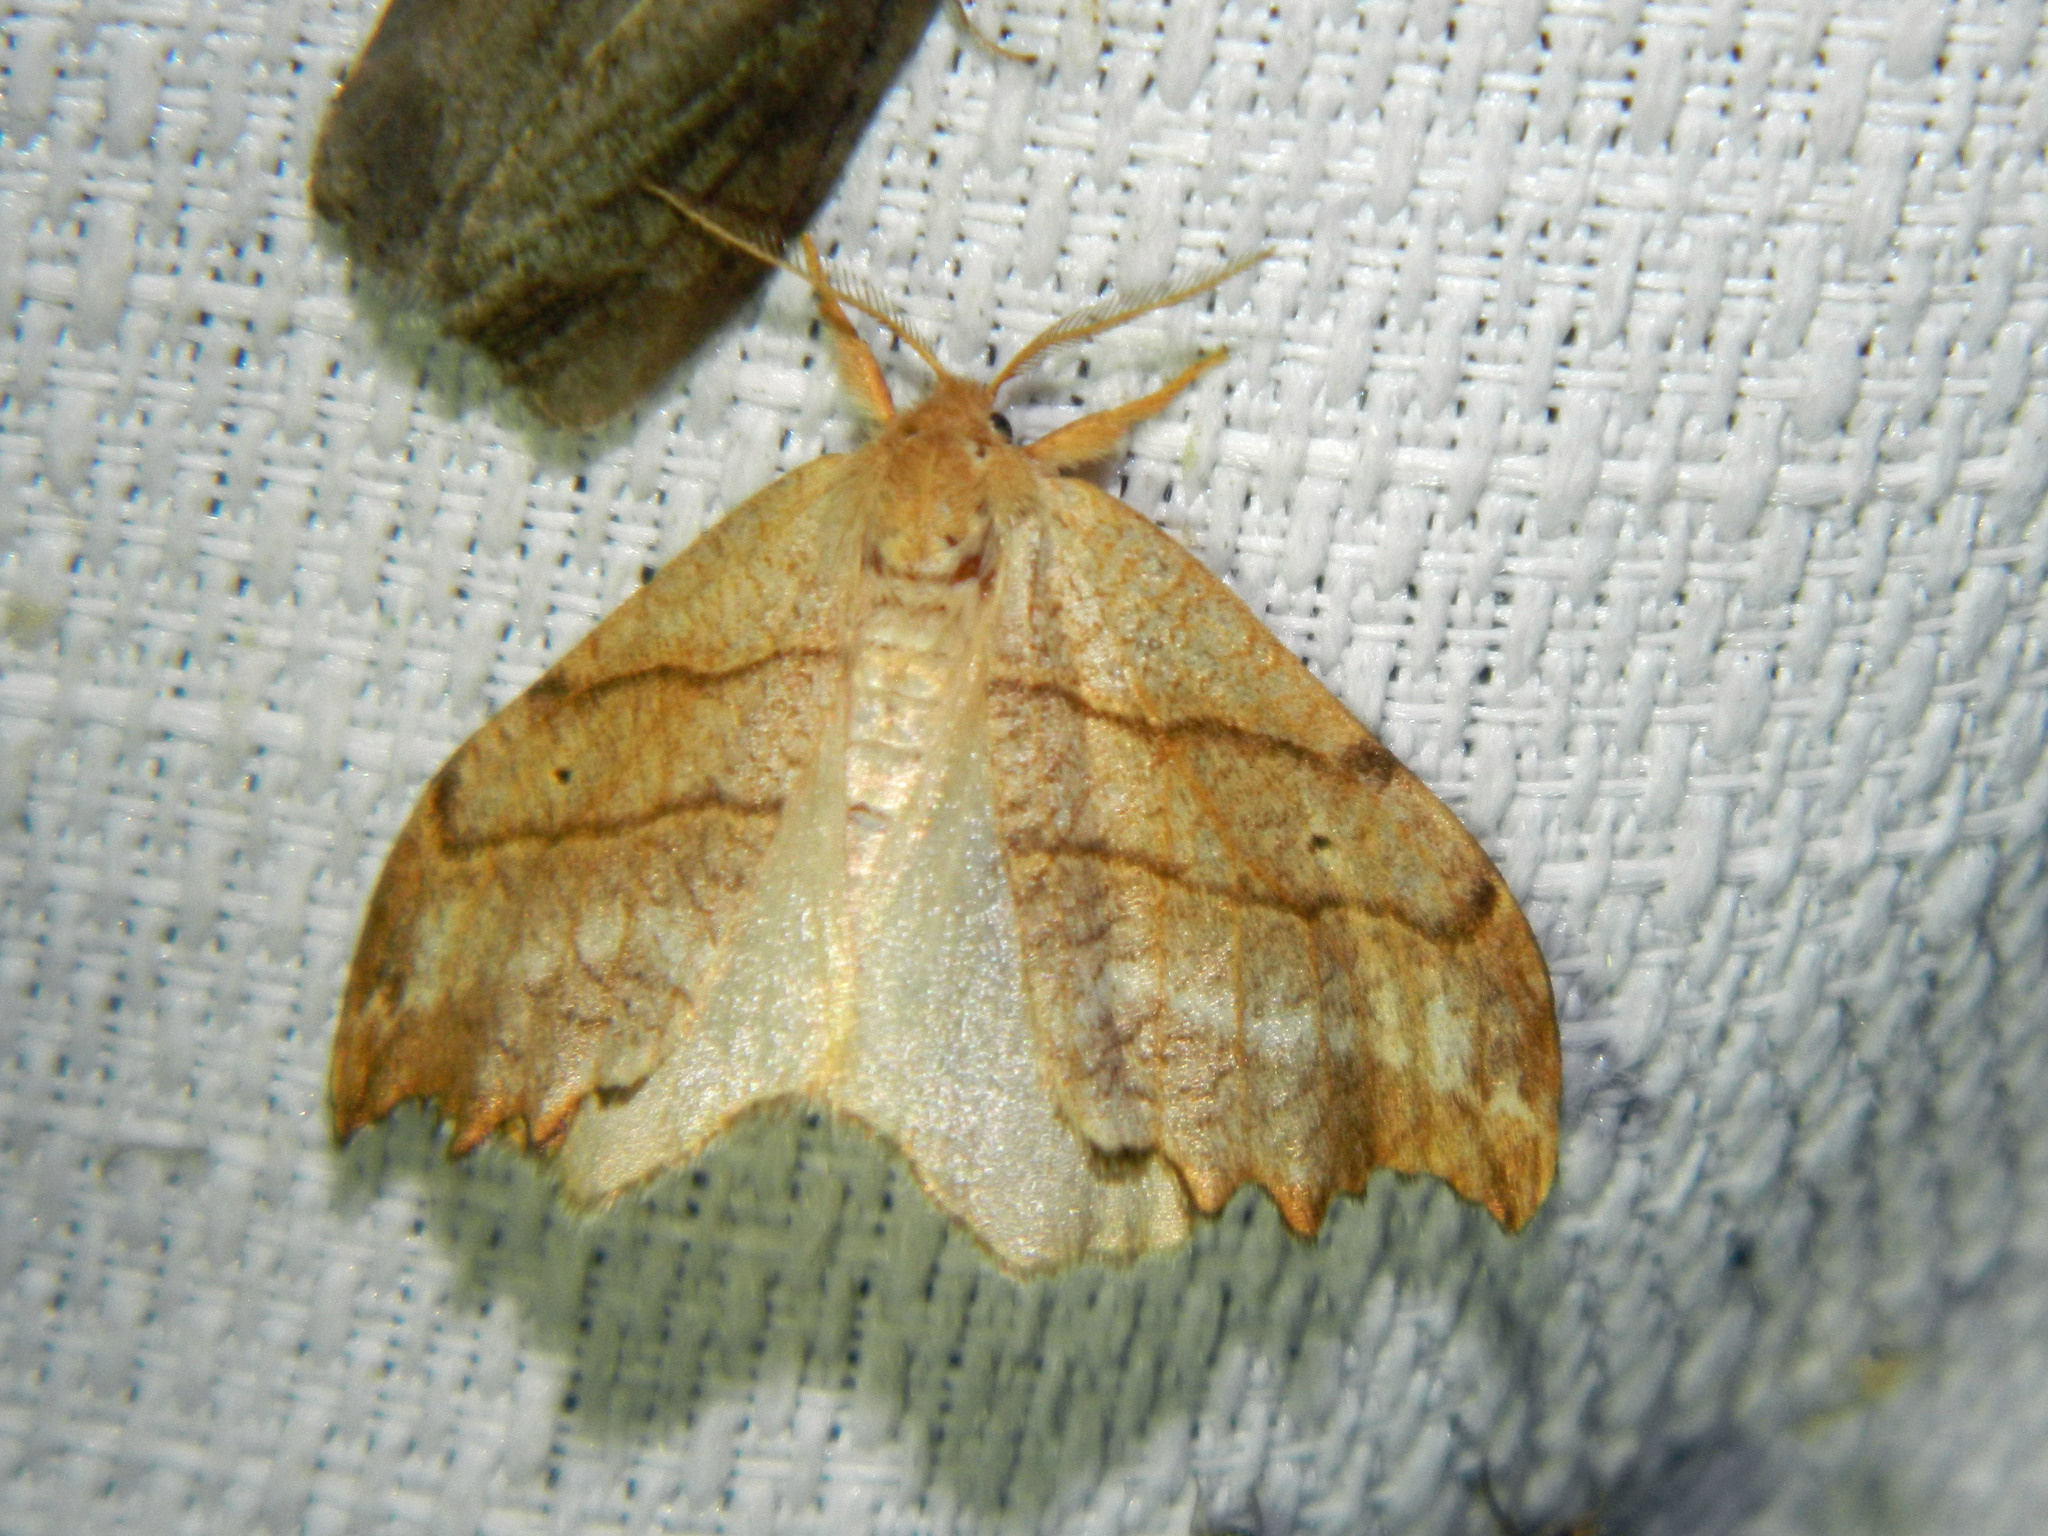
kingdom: Animalia
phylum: Arthropoda
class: Insecta
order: Lepidoptera
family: Drepanidae
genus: Falcaria
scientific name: Falcaria bilineata
